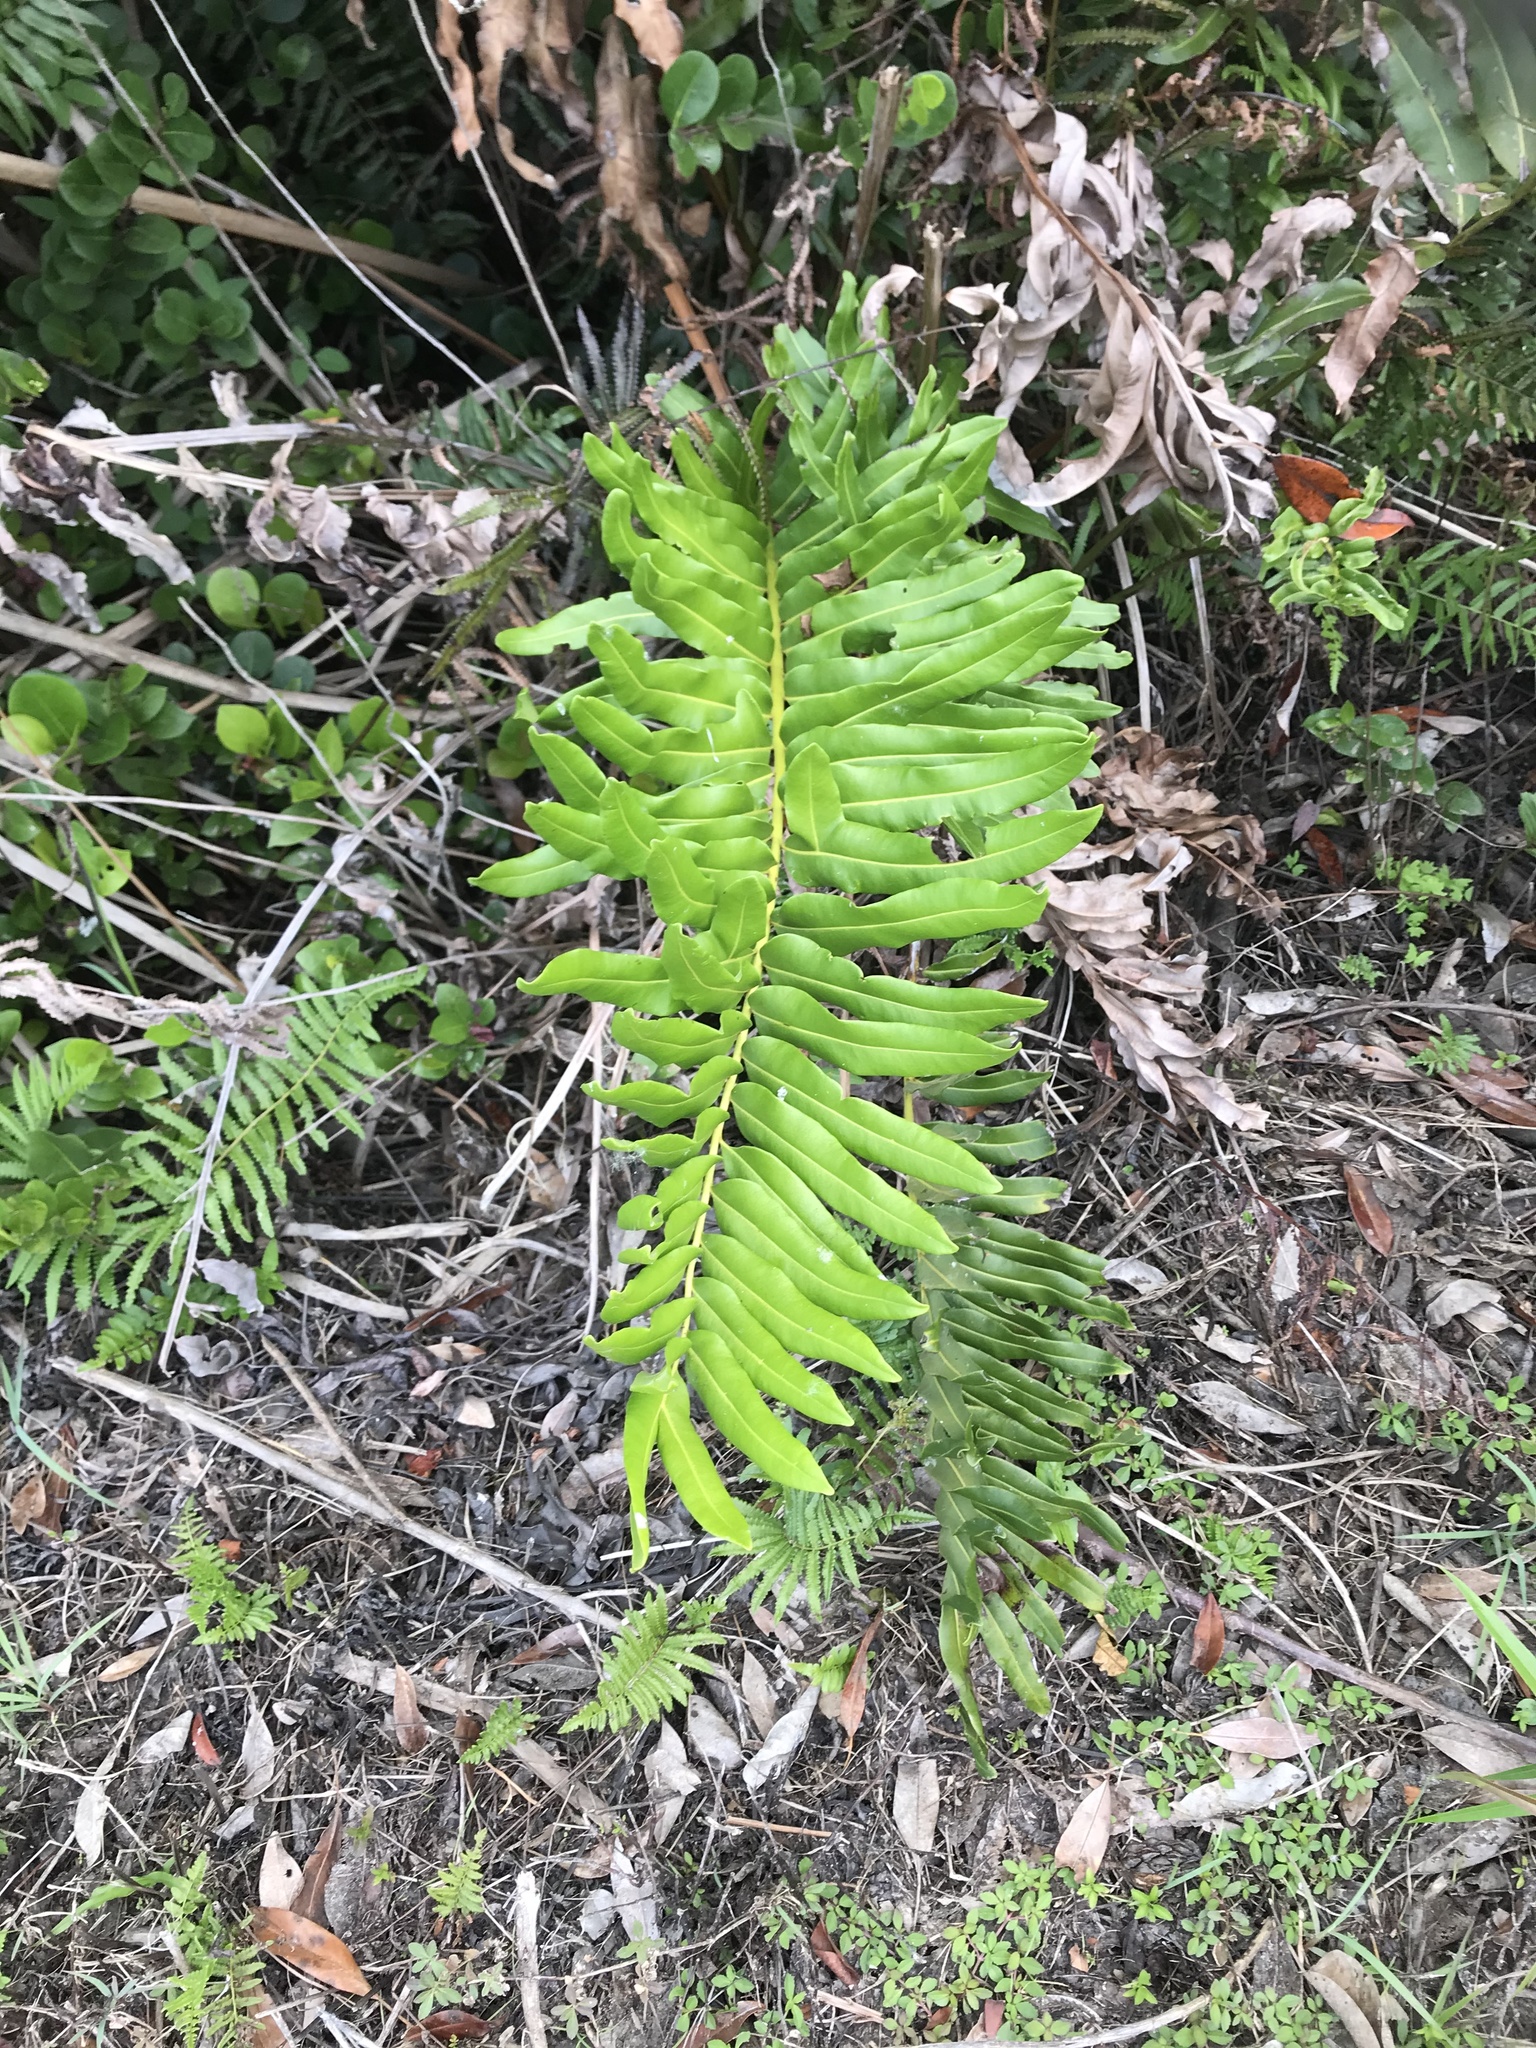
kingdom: Plantae
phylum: Tracheophyta
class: Polypodiopsida
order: Polypodiales
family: Pteridaceae
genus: Acrostichum
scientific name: Acrostichum danaeifolium
